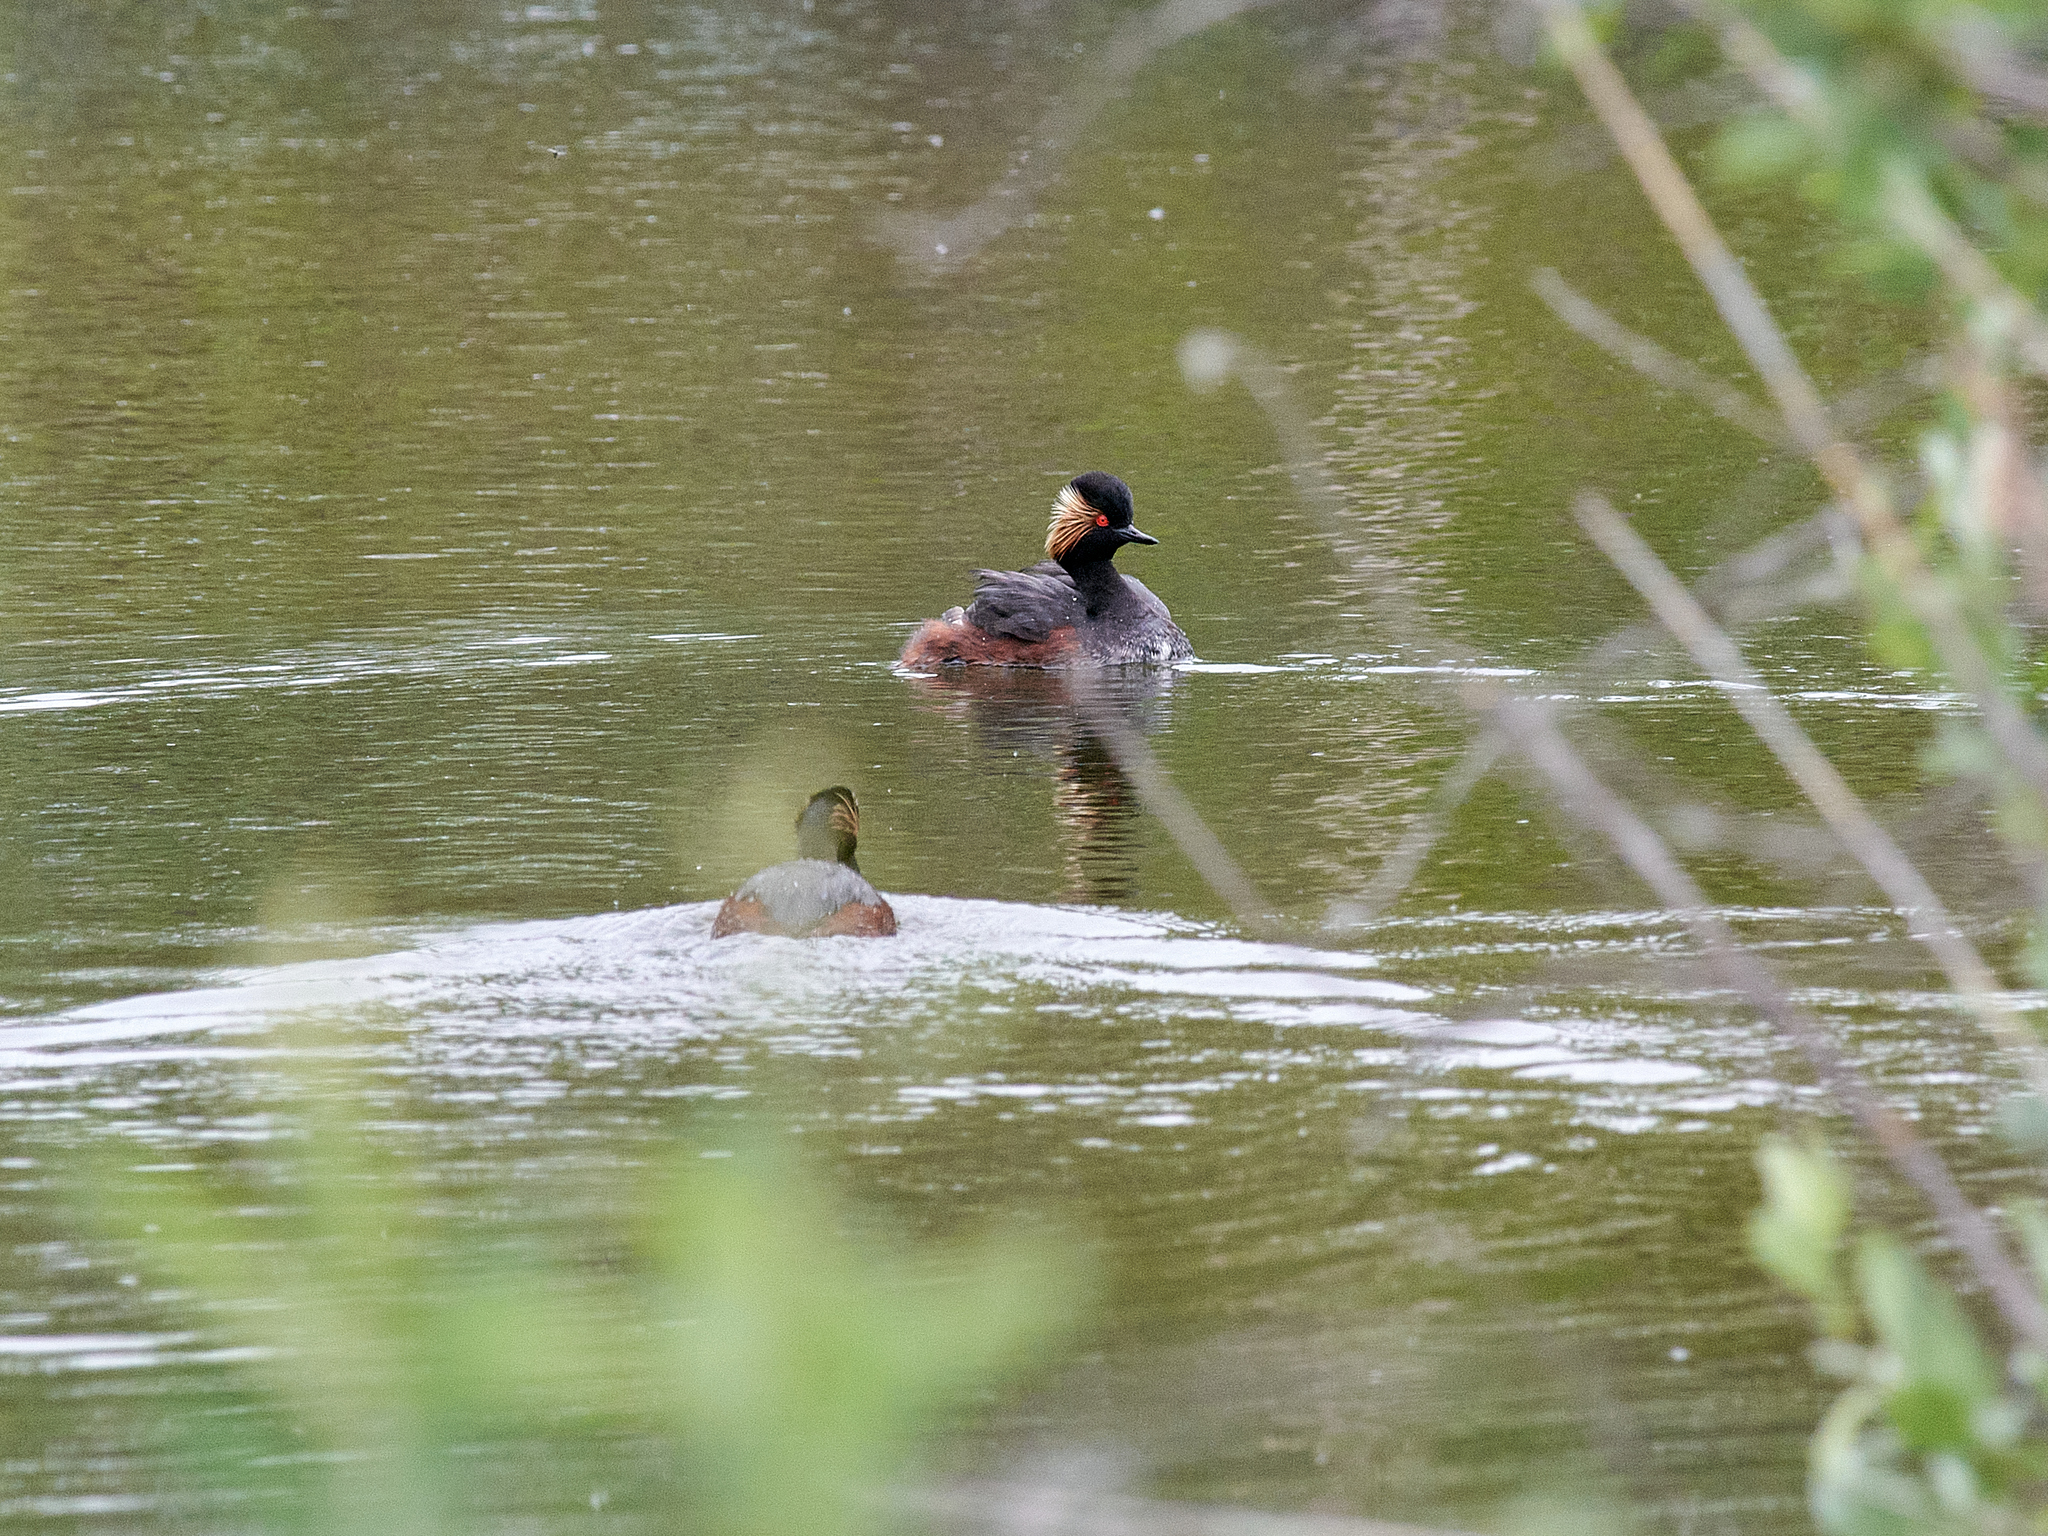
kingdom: Animalia
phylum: Chordata
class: Aves
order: Podicipediformes
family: Podicipedidae
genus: Podiceps
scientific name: Podiceps nigricollis
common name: Black-necked grebe
